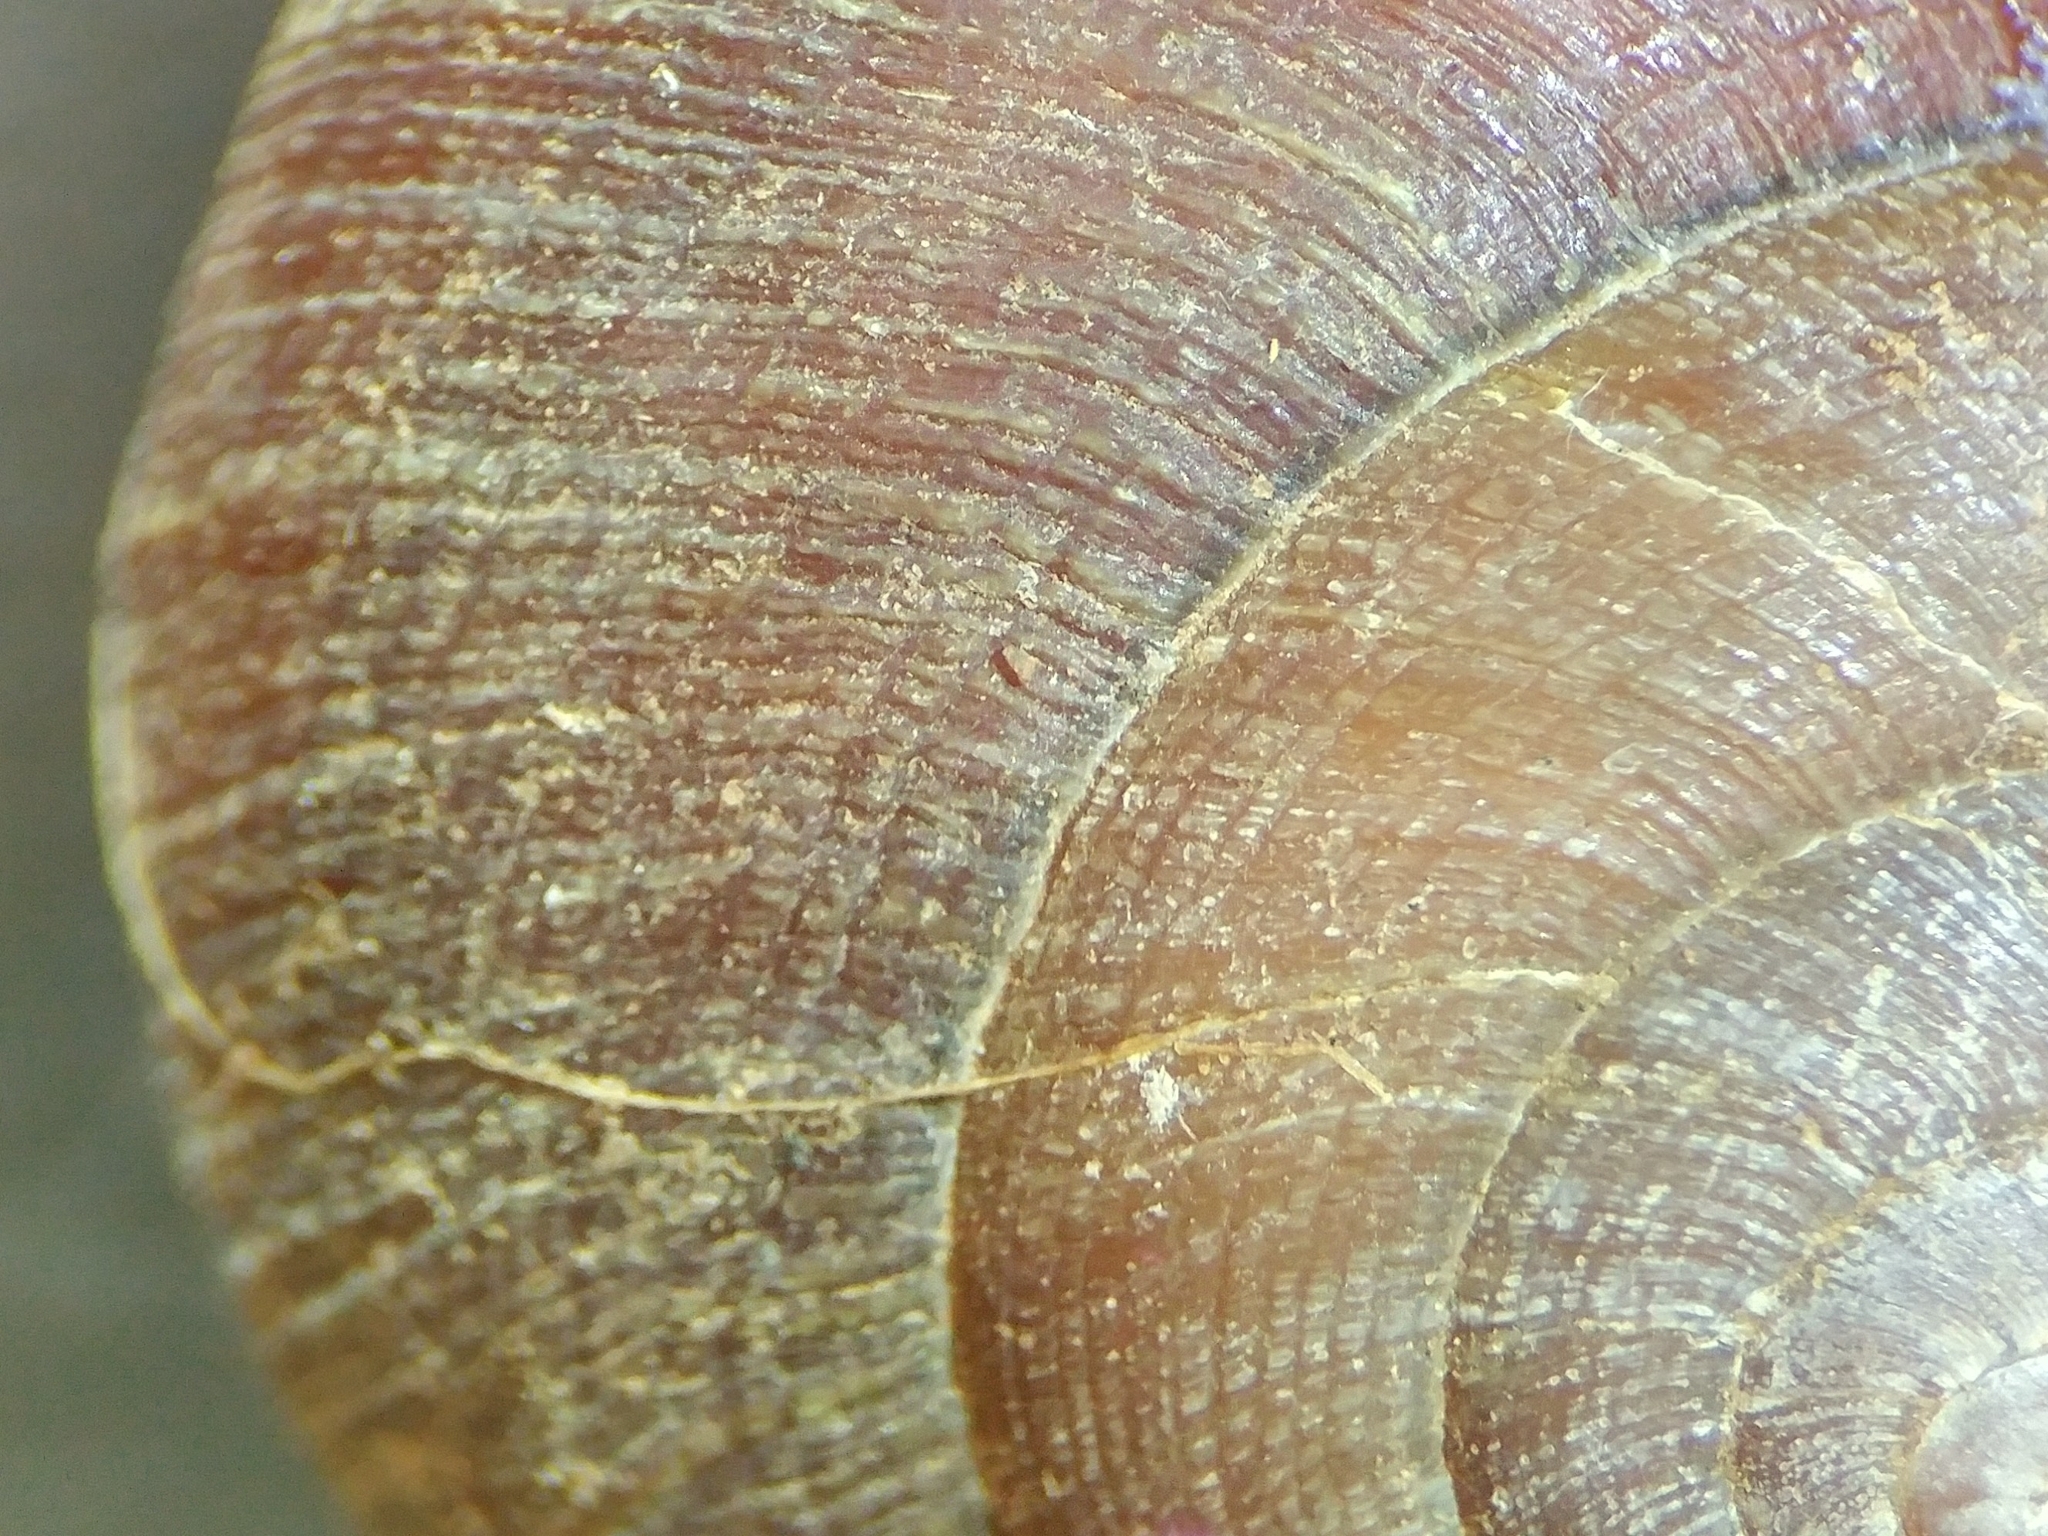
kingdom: Animalia
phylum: Mollusca
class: Gastropoda
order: Stylommatophora
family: Xanthonychidae
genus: Xerarionta
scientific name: Xerarionta intercisa
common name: Plain cactus snail
